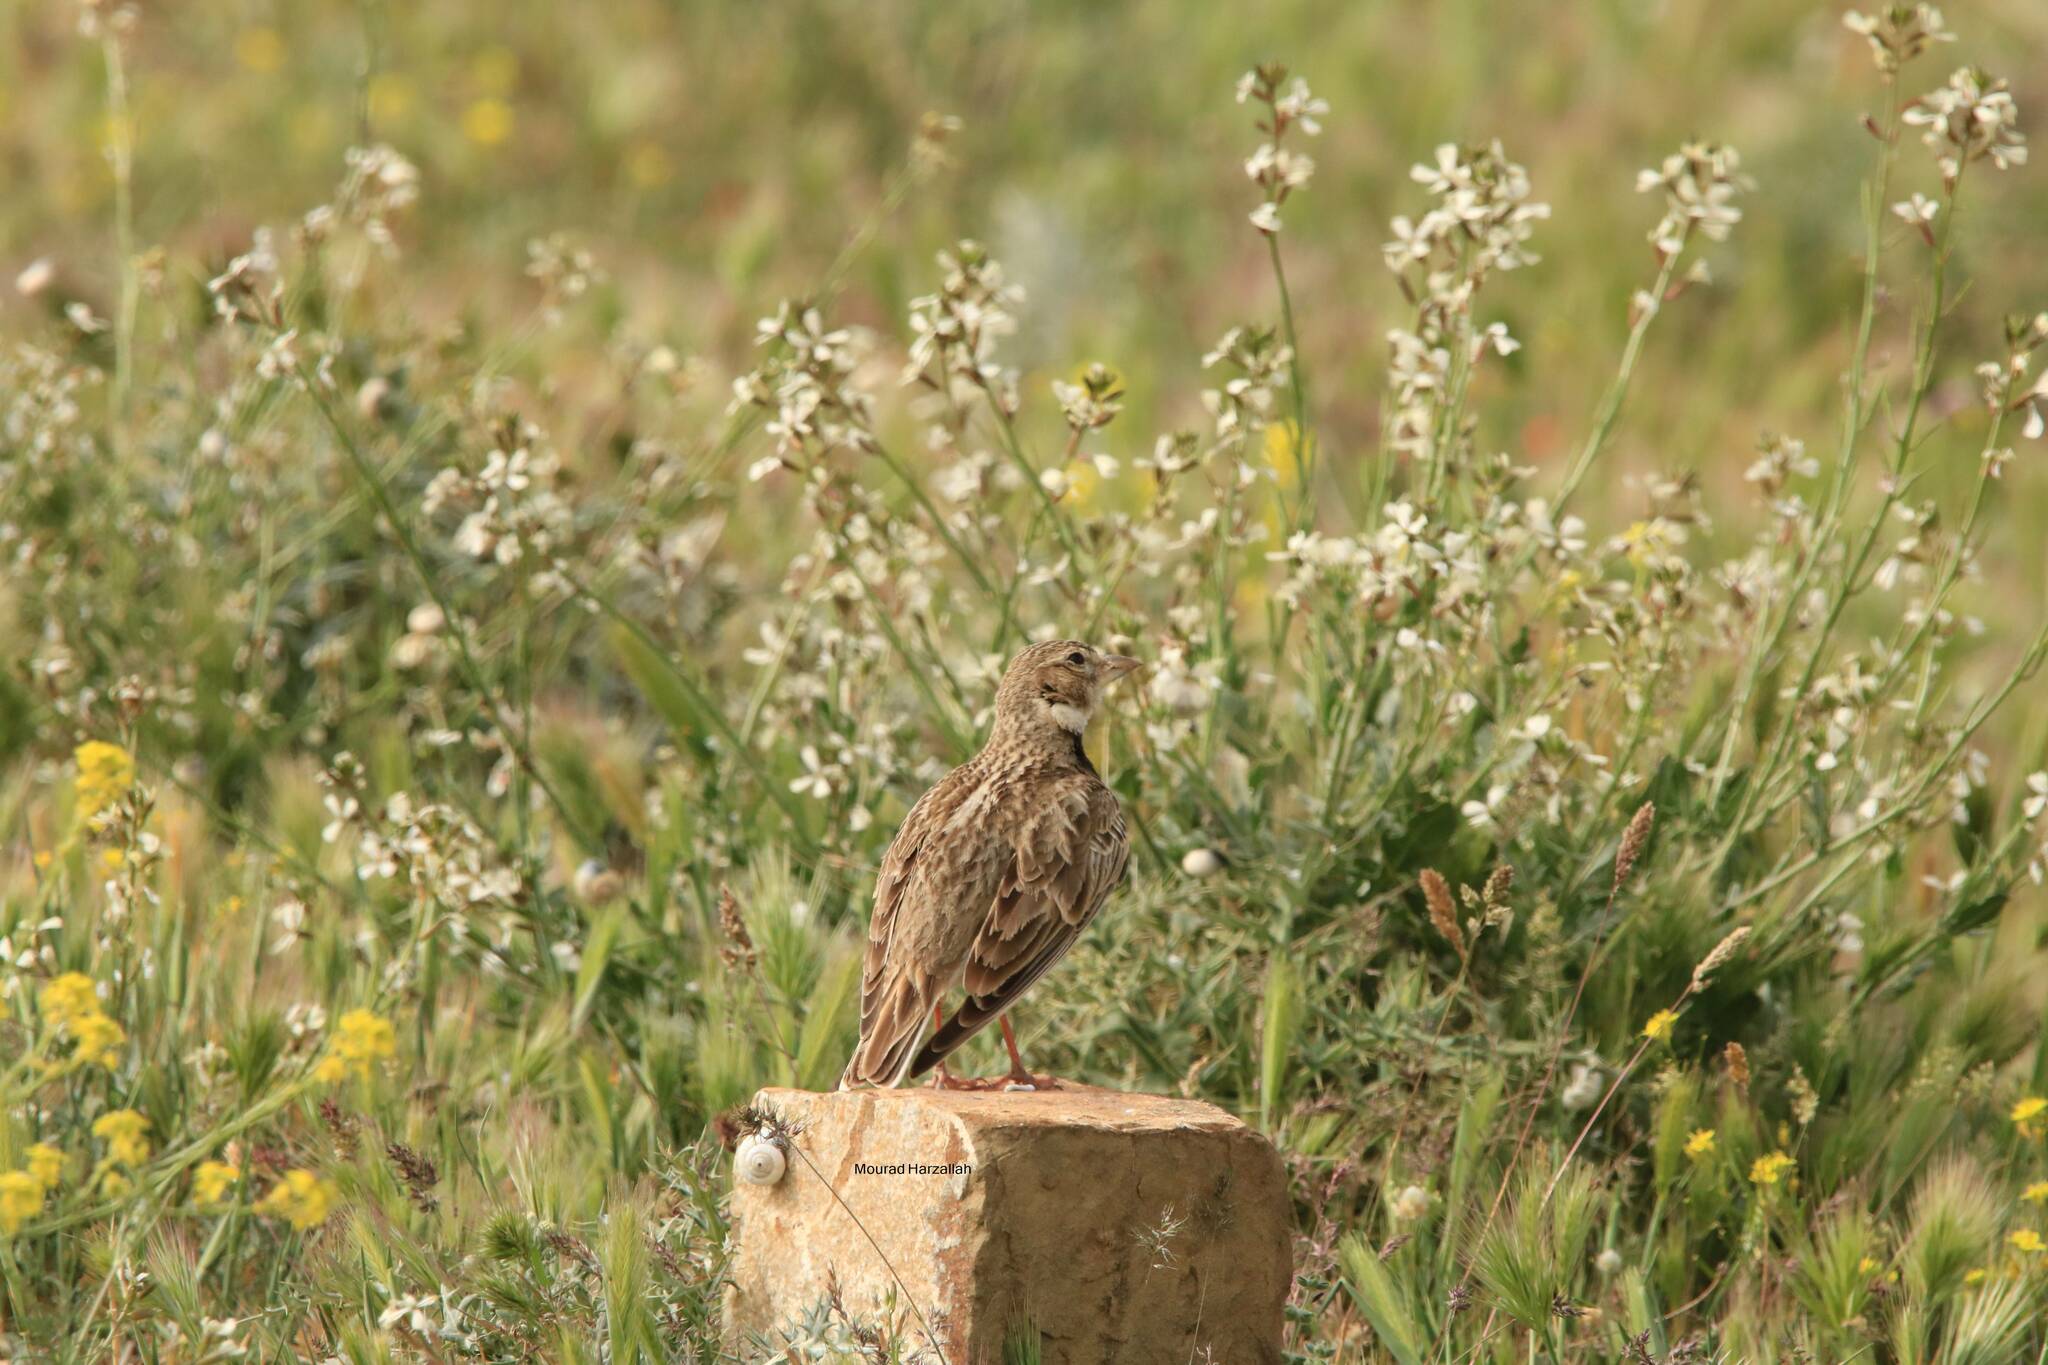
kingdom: Animalia
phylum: Chordata
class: Aves
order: Passeriformes
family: Alaudidae
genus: Melanocorypha
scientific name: Melanocorypha calandra
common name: Calandra lark
